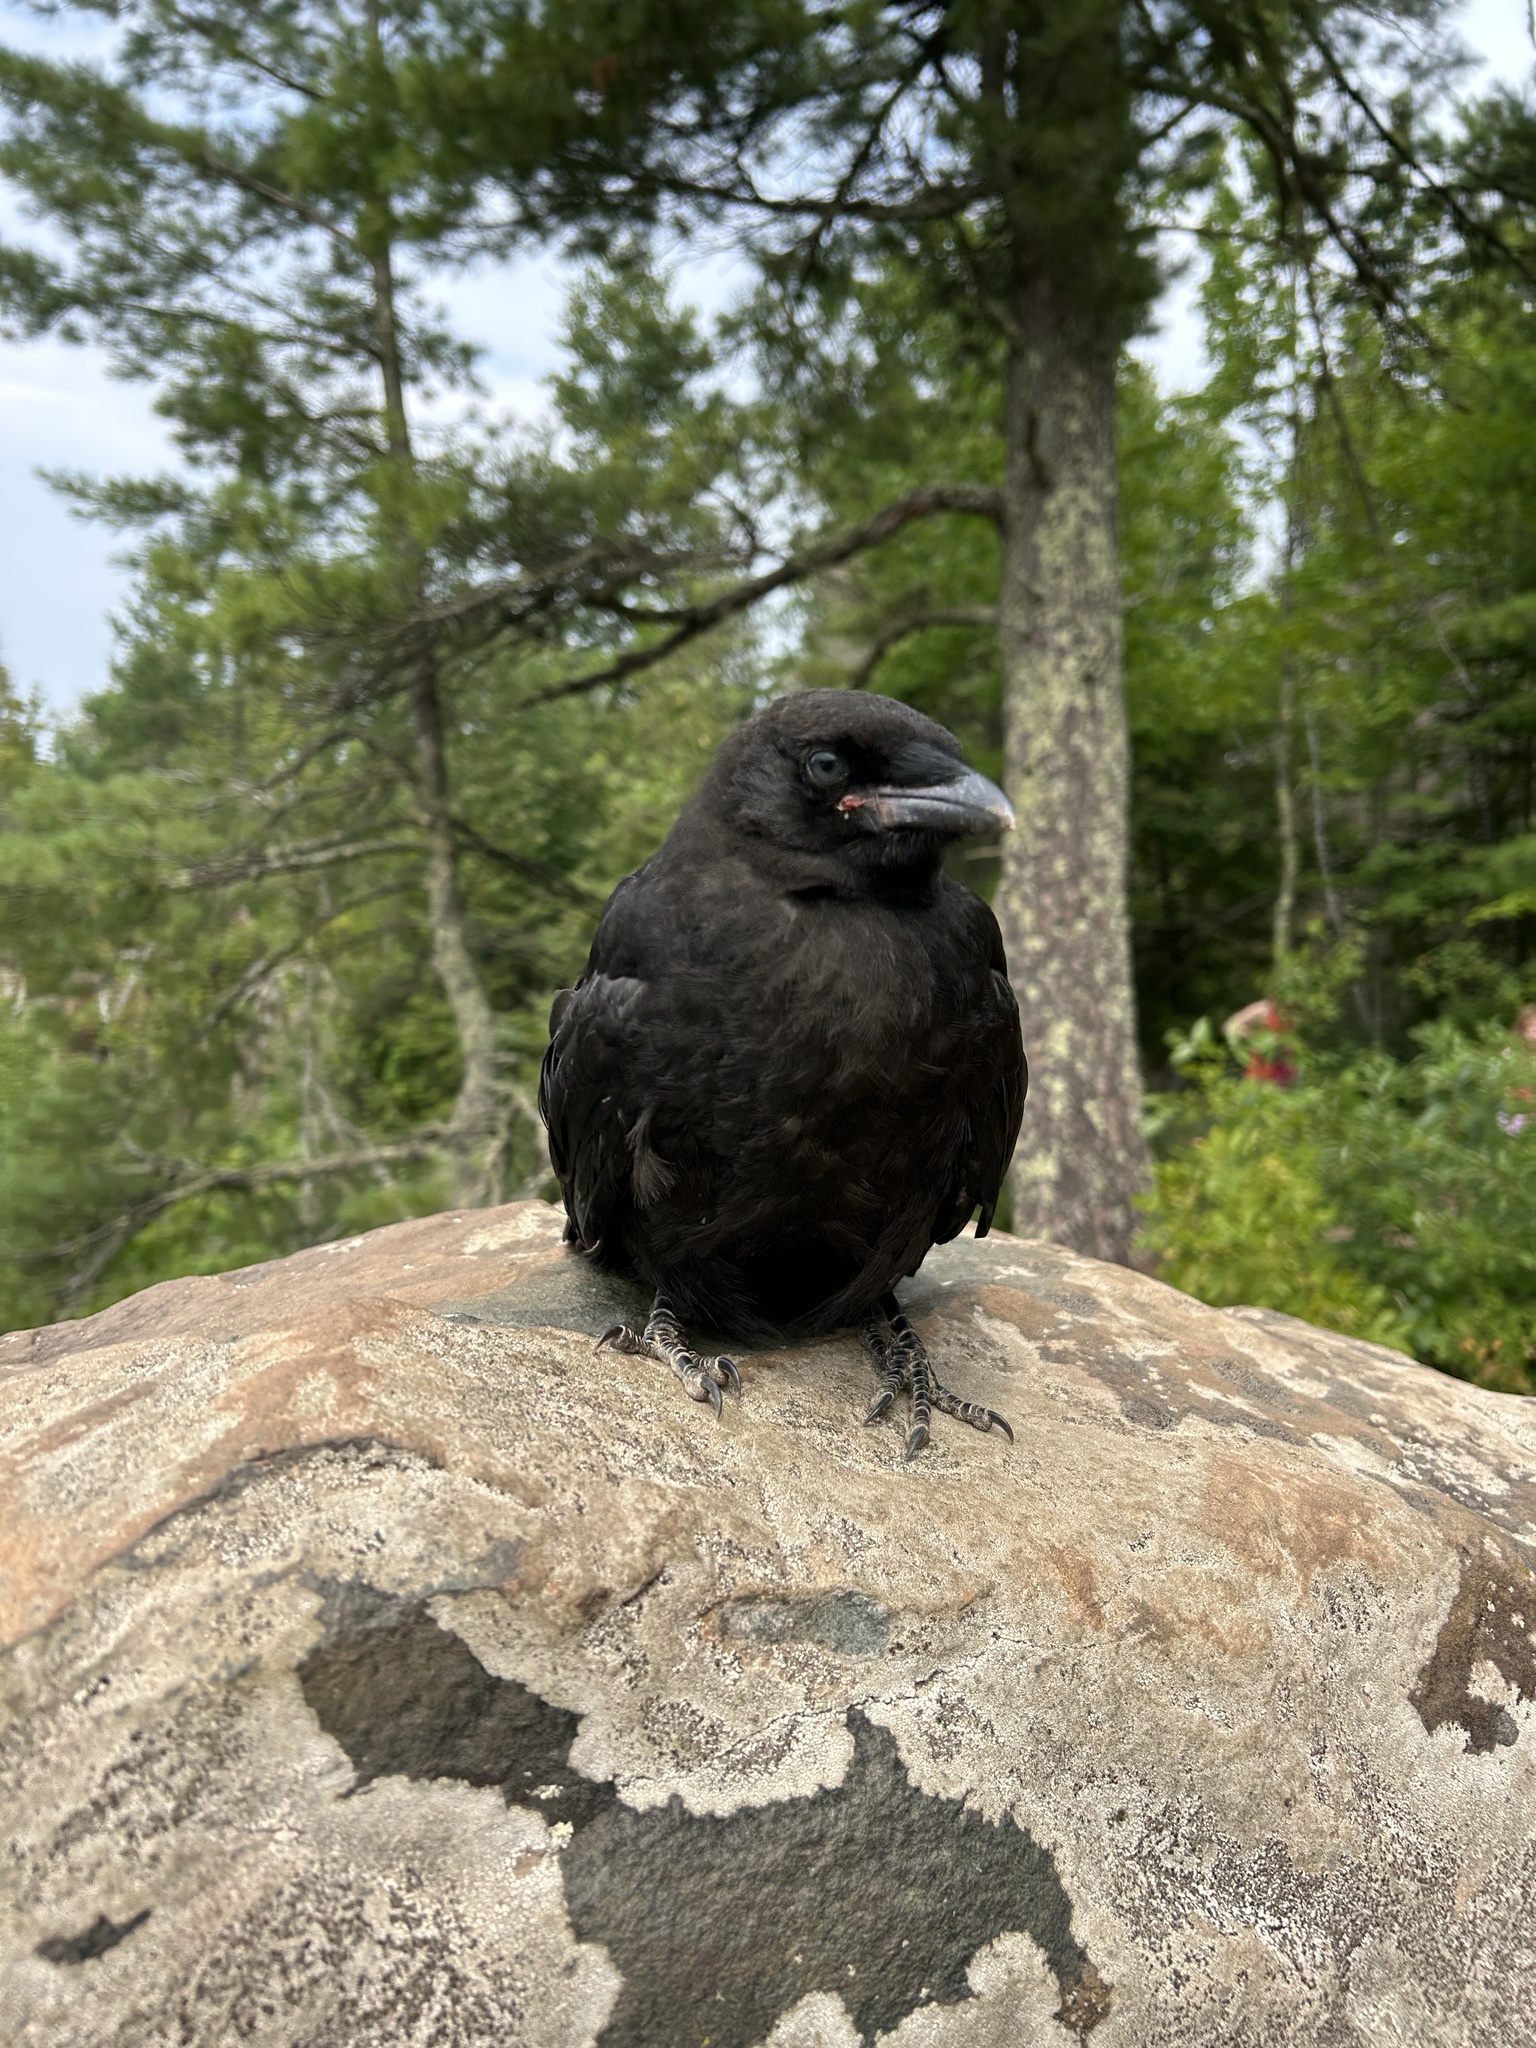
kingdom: Animalia
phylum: Chordata
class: Aves
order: Passeriformes
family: Corvidae
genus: Corvus
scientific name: Corvus brachyrhynchos
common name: American crow
